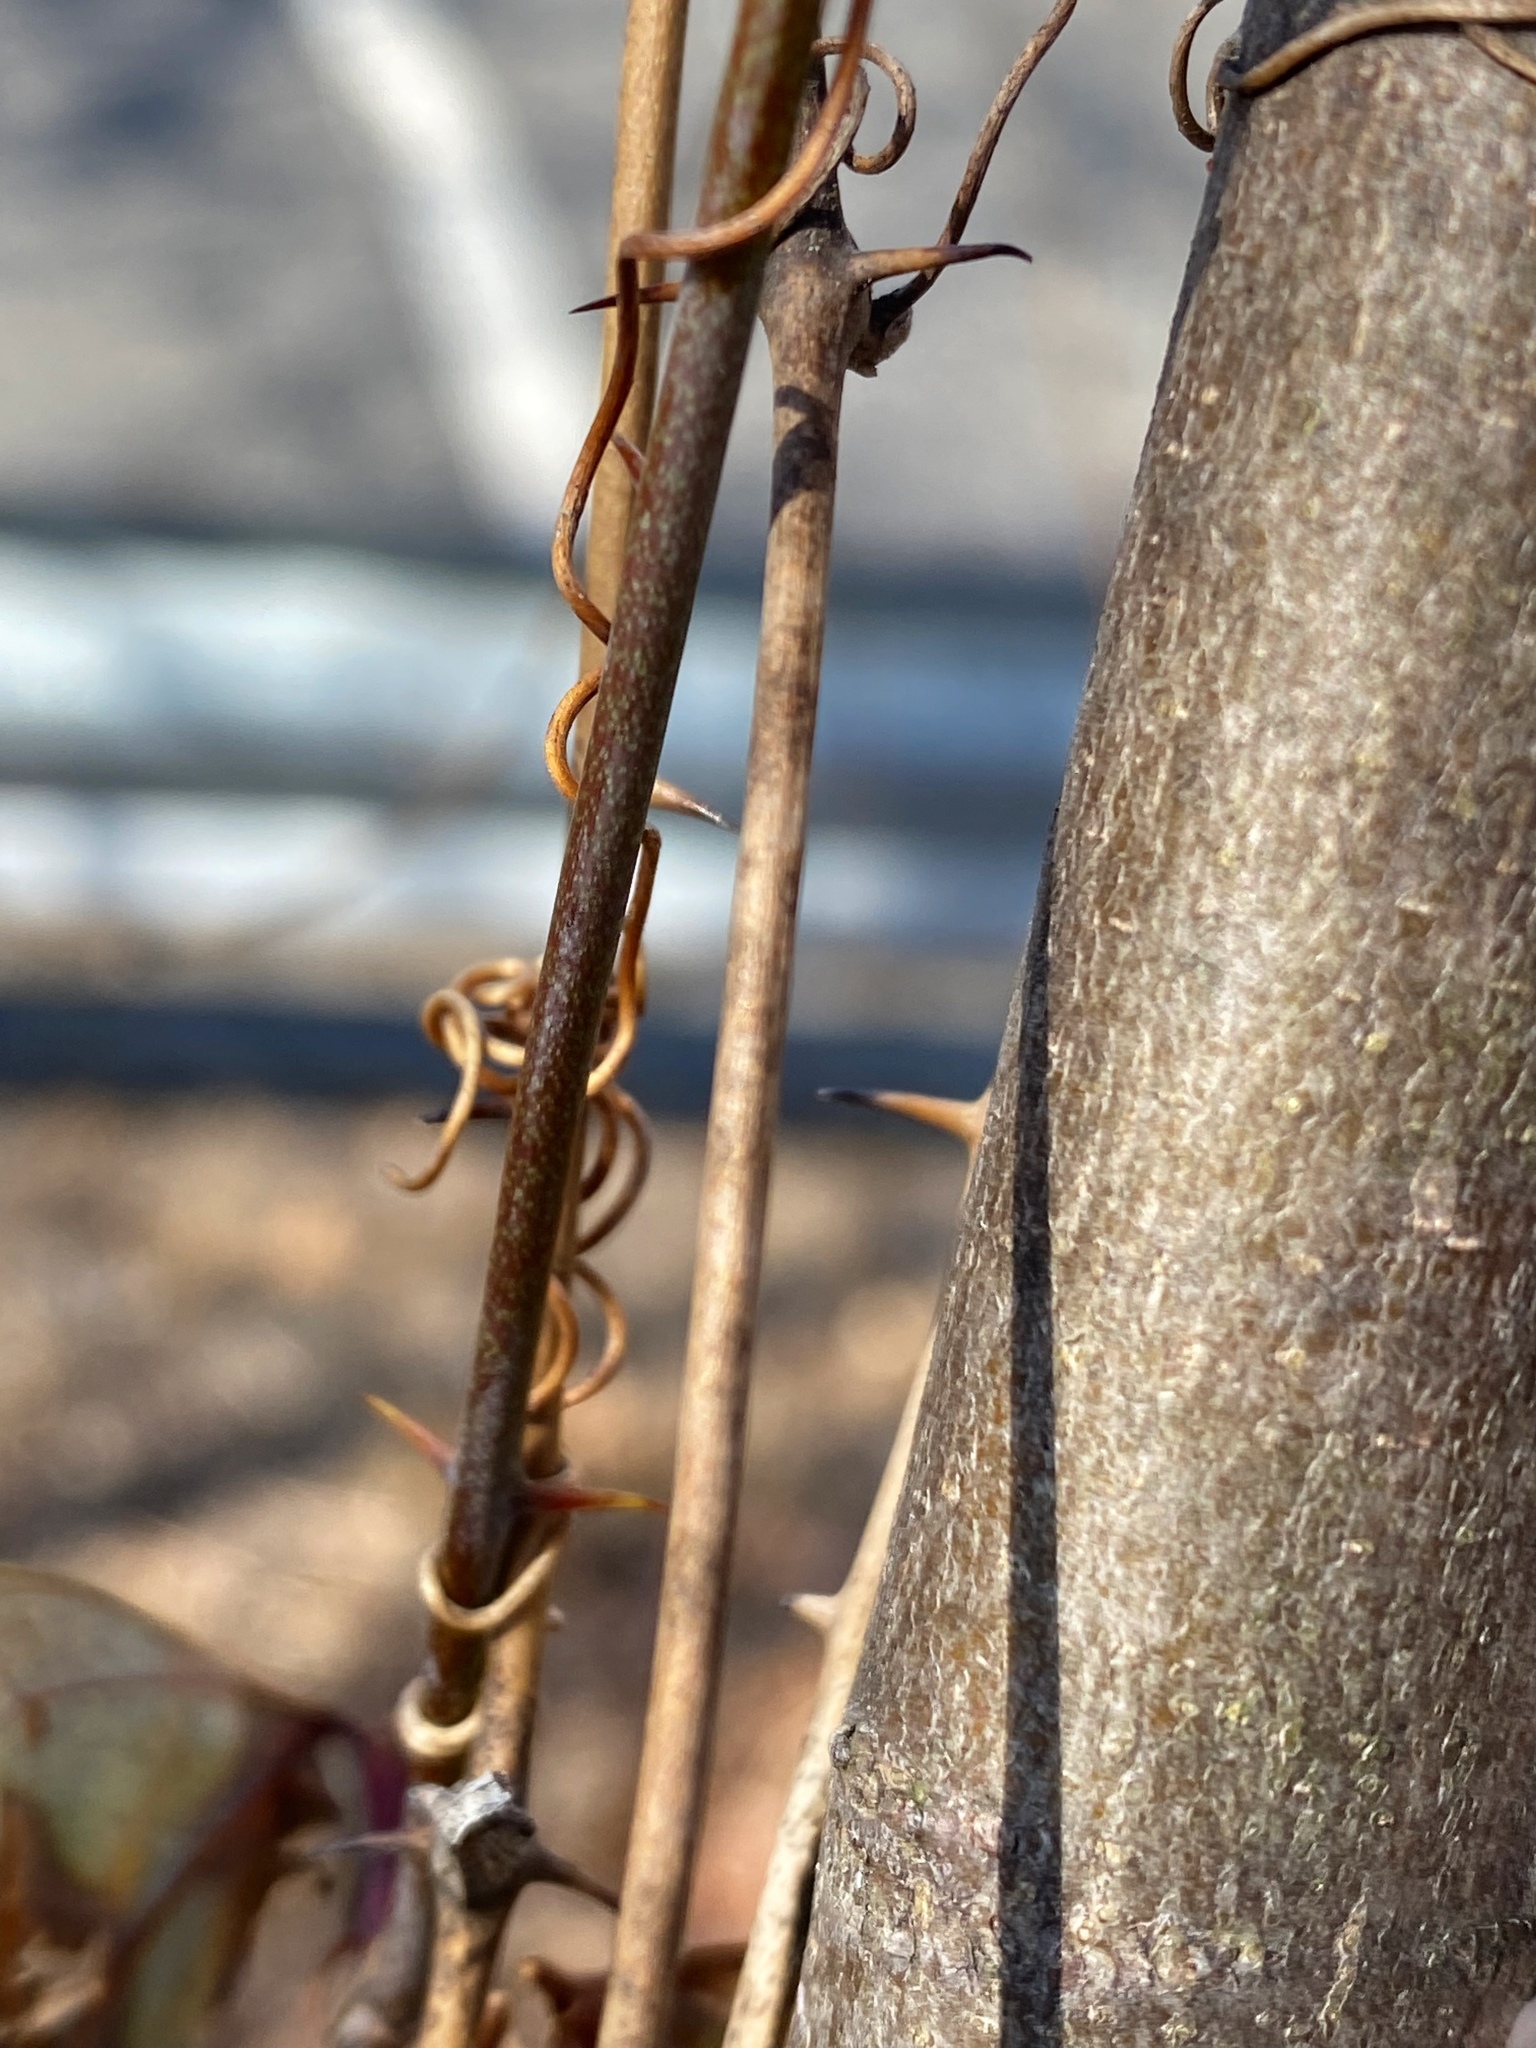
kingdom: Plantae
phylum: Tracheophyta
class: Liliopsida
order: Liliales
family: Smilacaceae
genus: Smilax
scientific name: Smilax glauca
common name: Cat greenbrier
